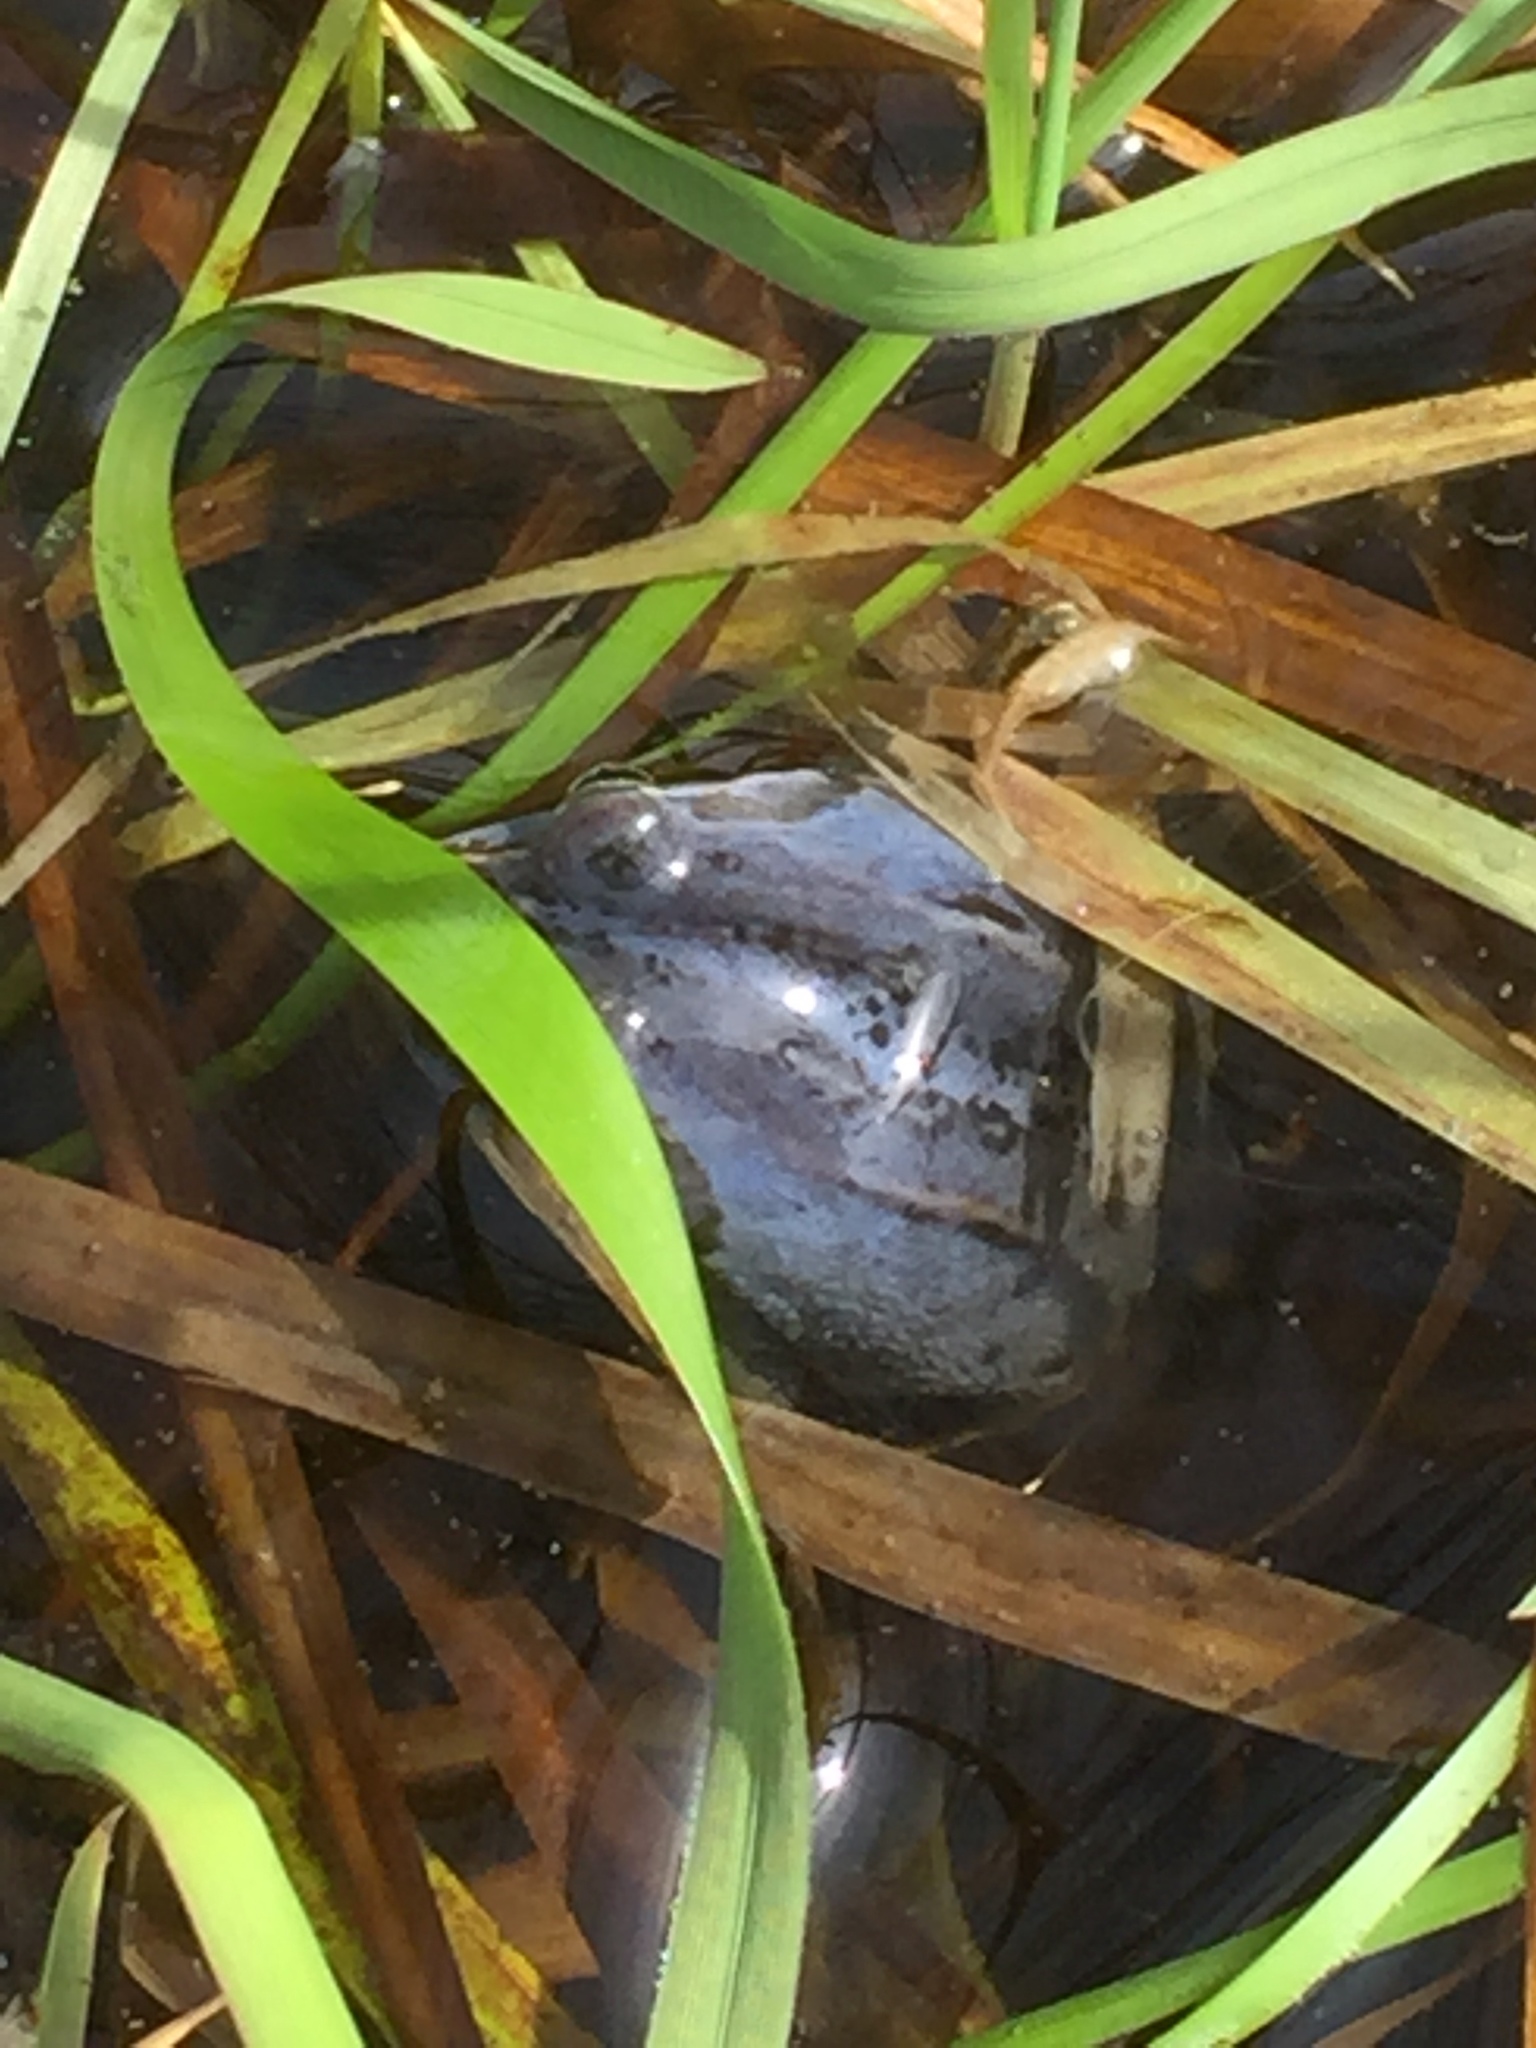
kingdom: Animalia
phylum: Chordata
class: Amphibia
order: Anura
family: Ranidae
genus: Rana
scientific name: Rana arvalis
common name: Moor frog
